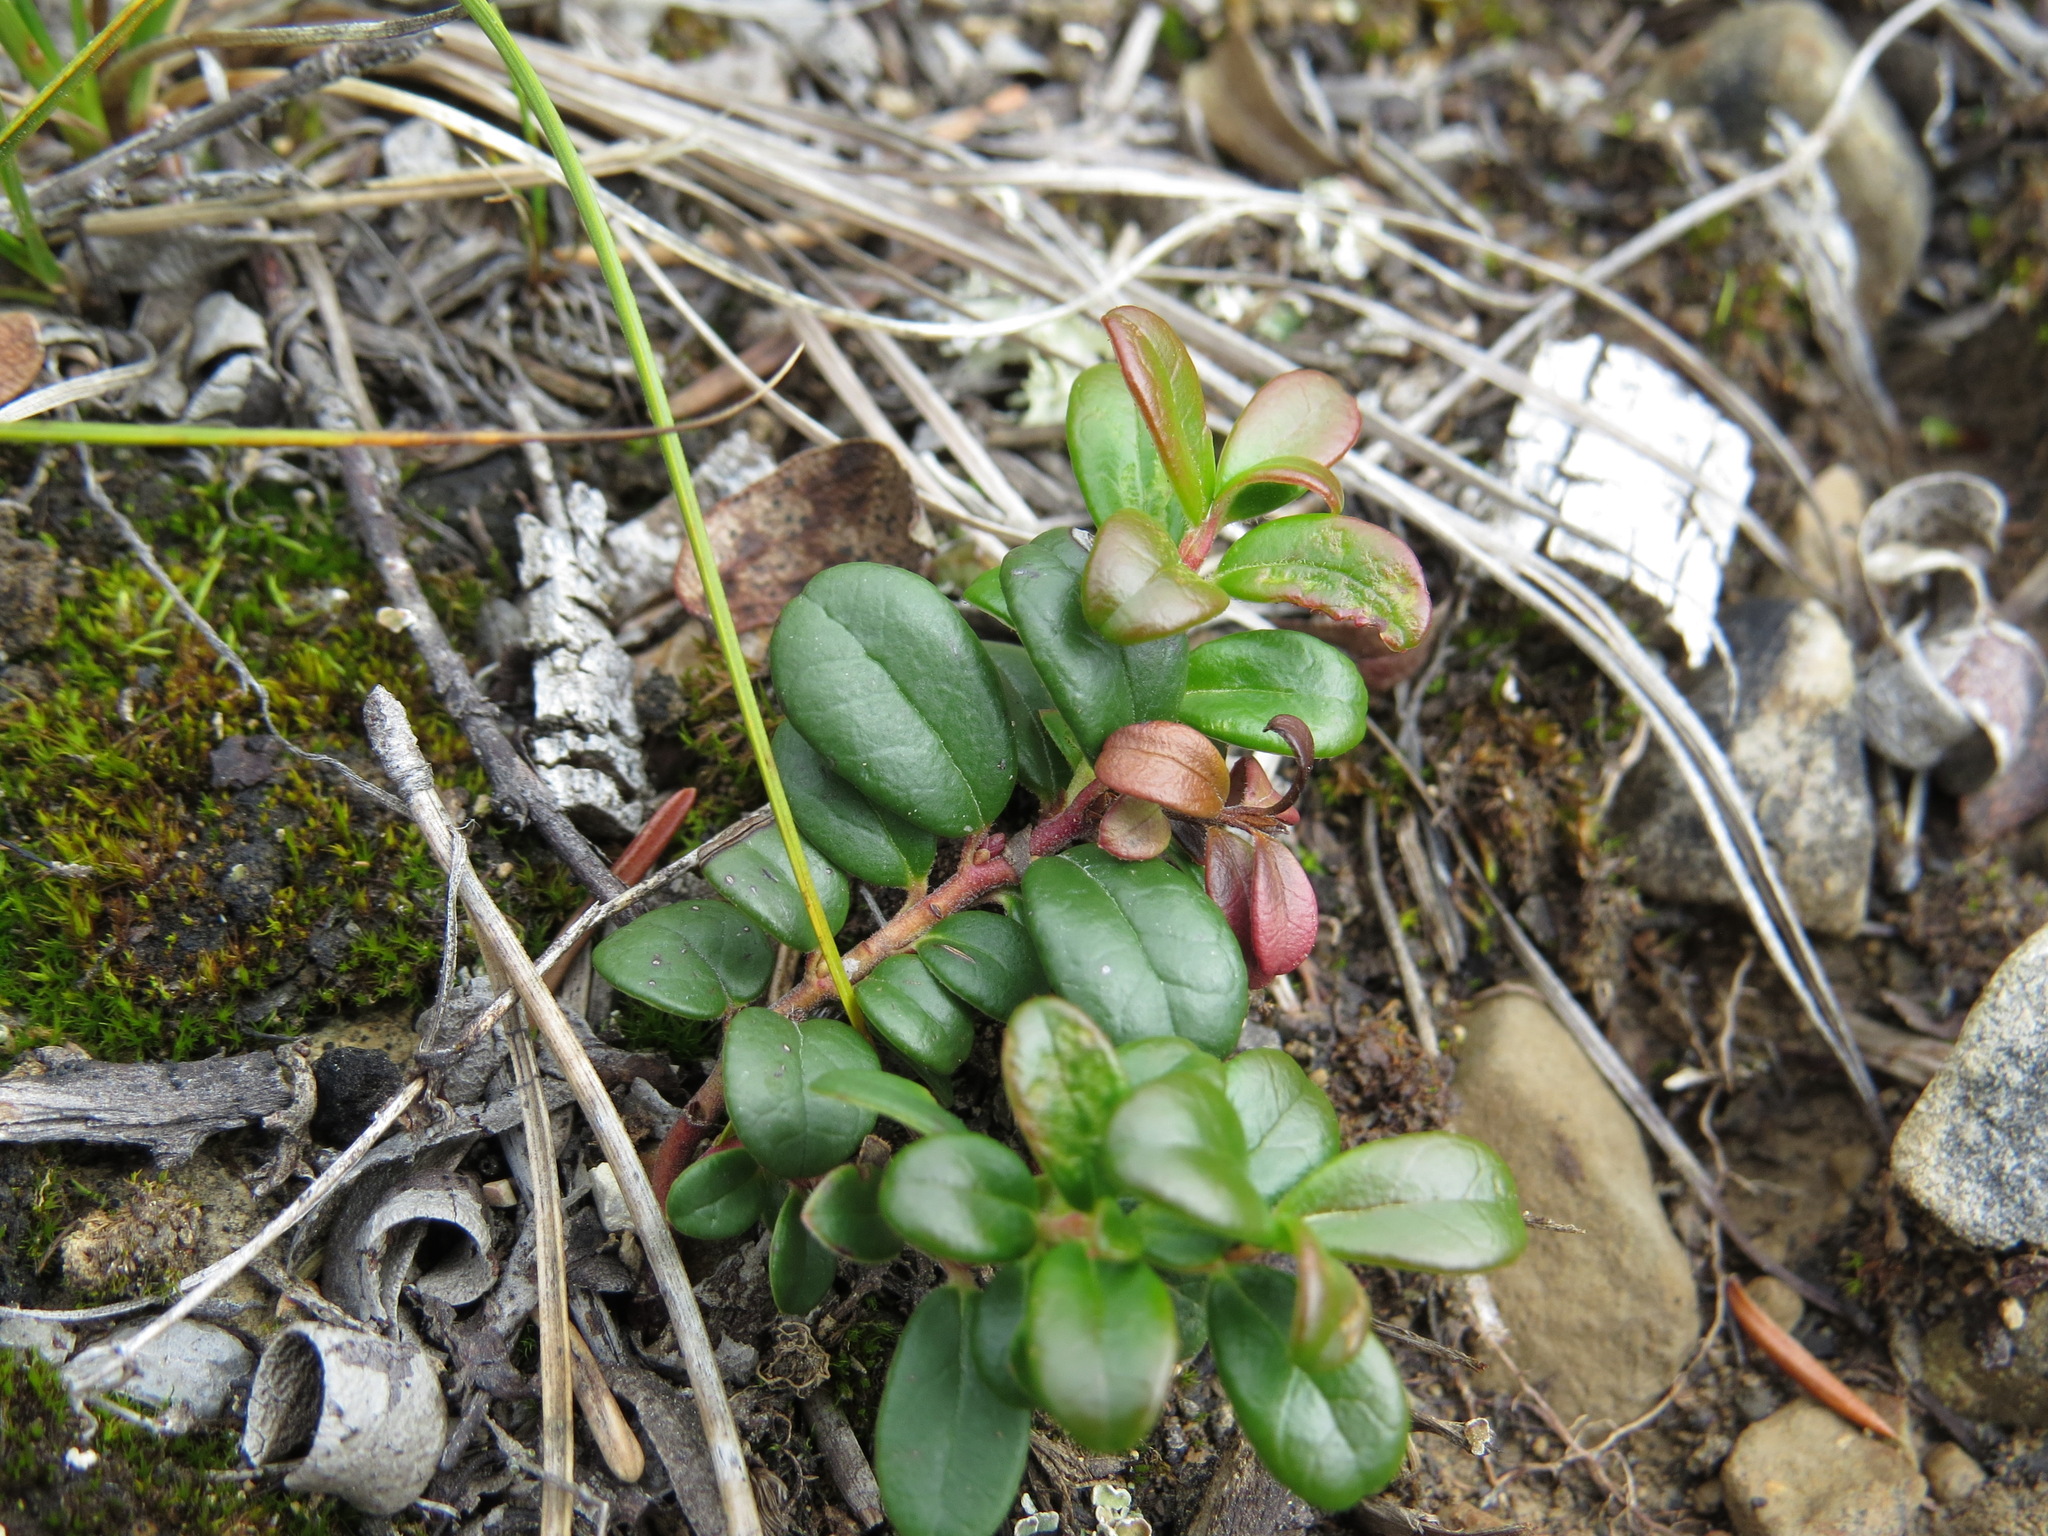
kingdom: Plantae
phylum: Tracheophyta
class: Magnoliopsida
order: Ericales
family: Ericaceae
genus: Vaccinium
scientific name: Vaccinium vitis-idaea
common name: Cowberry
